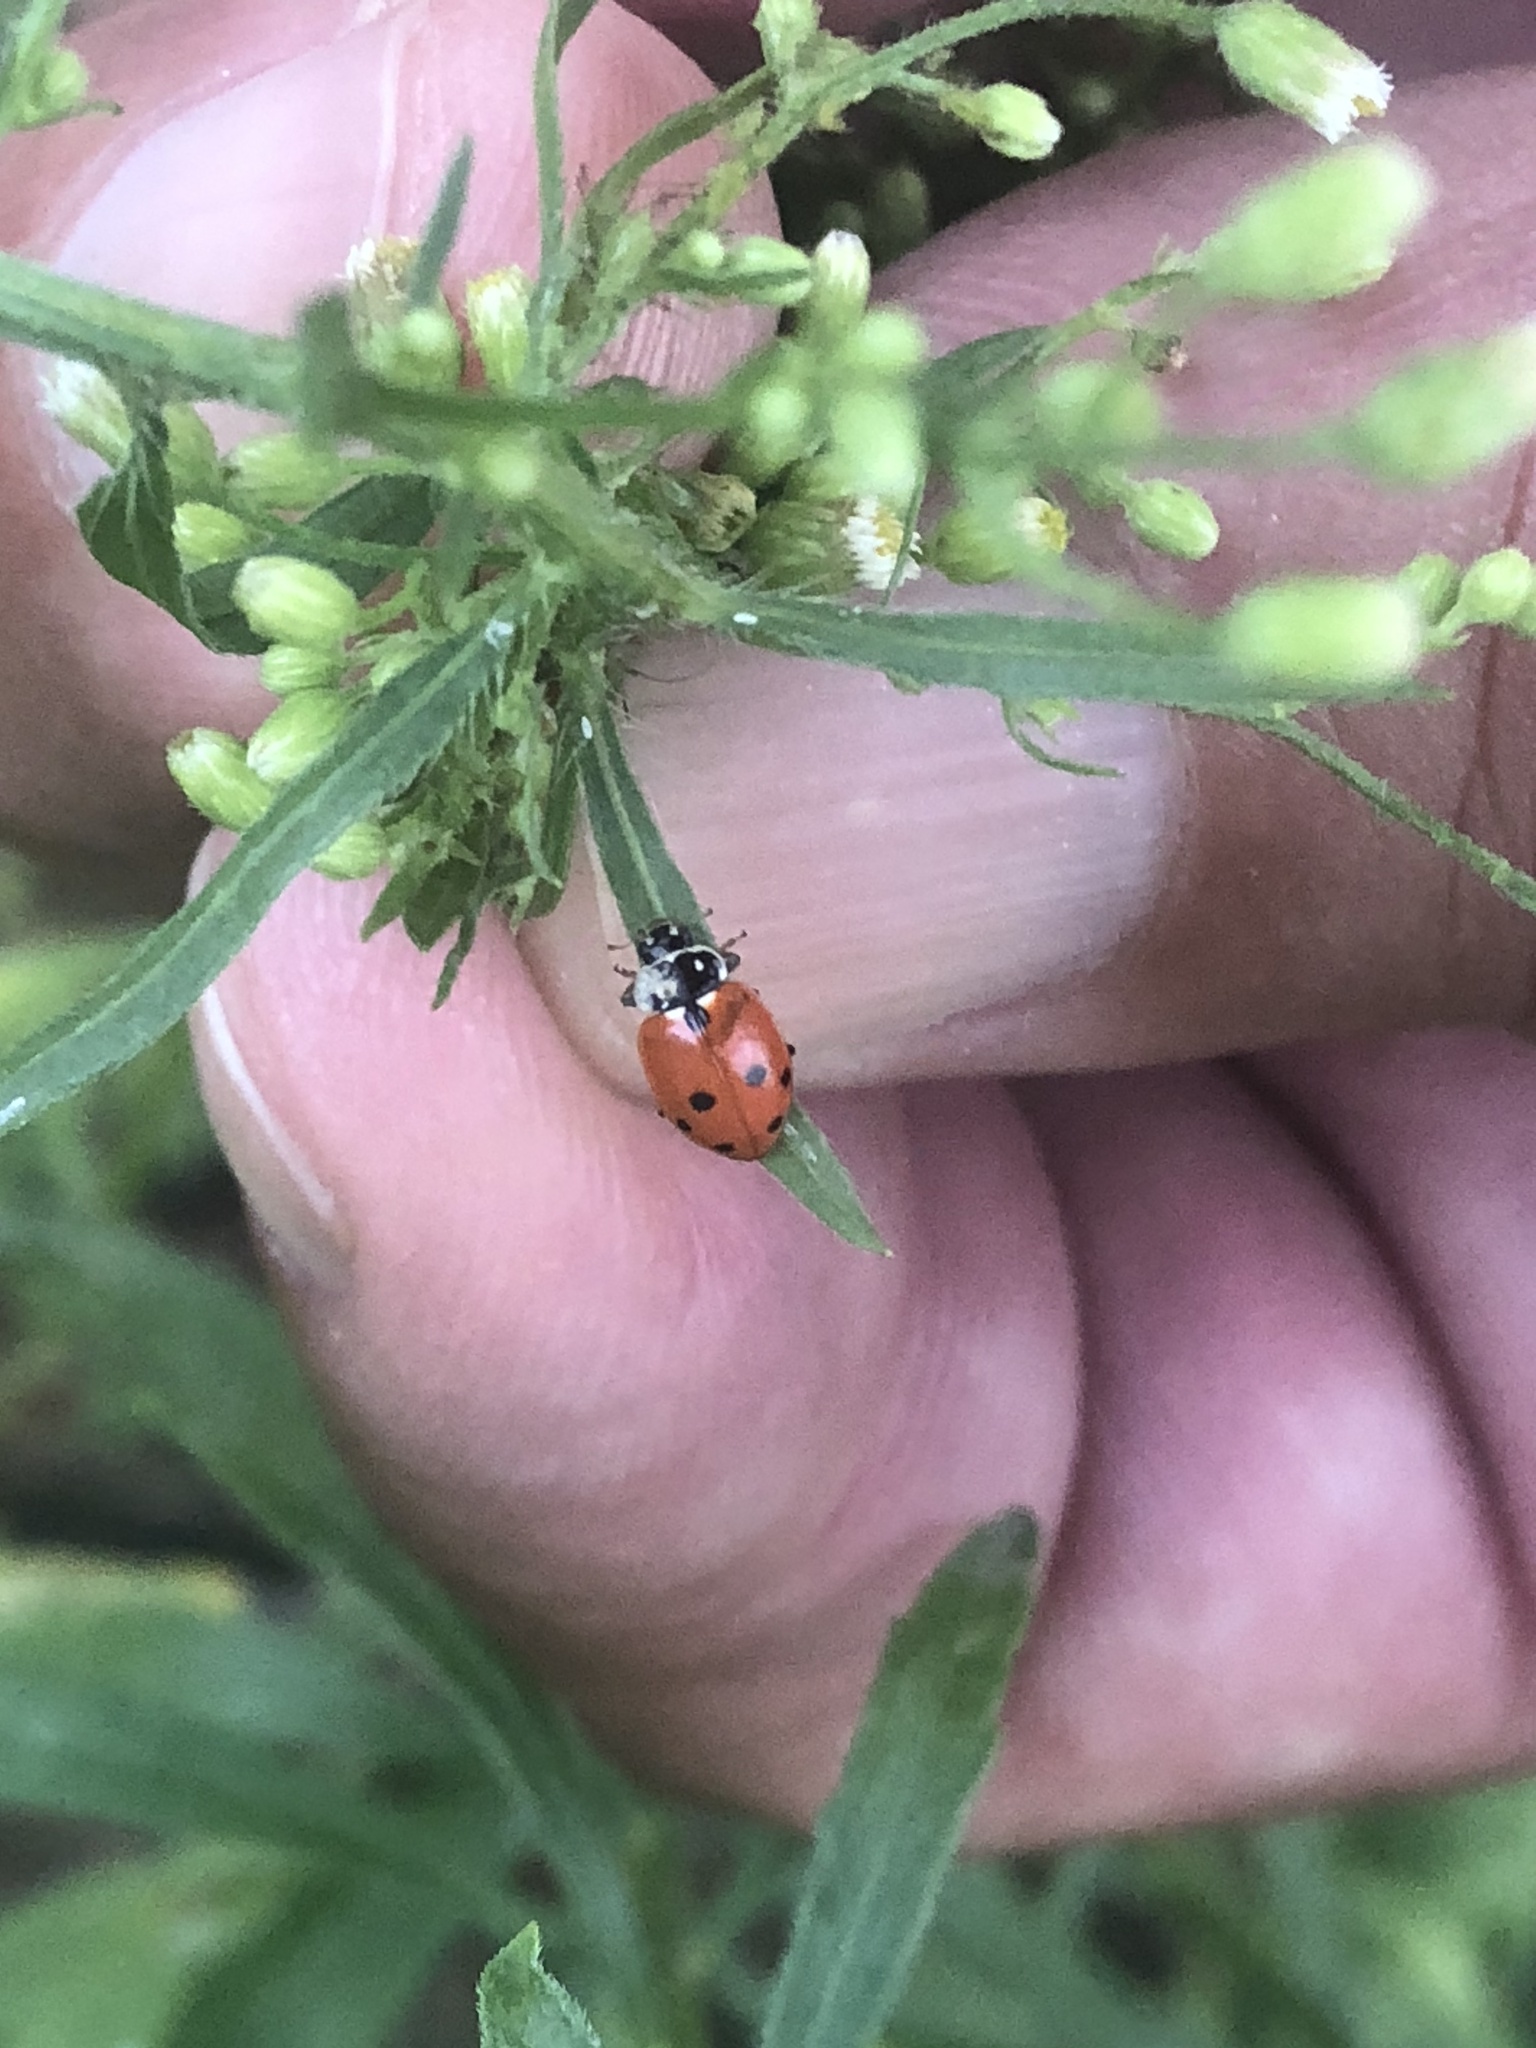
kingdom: Animalia
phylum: Arthropoda
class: Insecta
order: Coleoptera
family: Coccinellidae
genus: Hippodamia
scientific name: Hippodamia variegata
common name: Ladybird beetle
